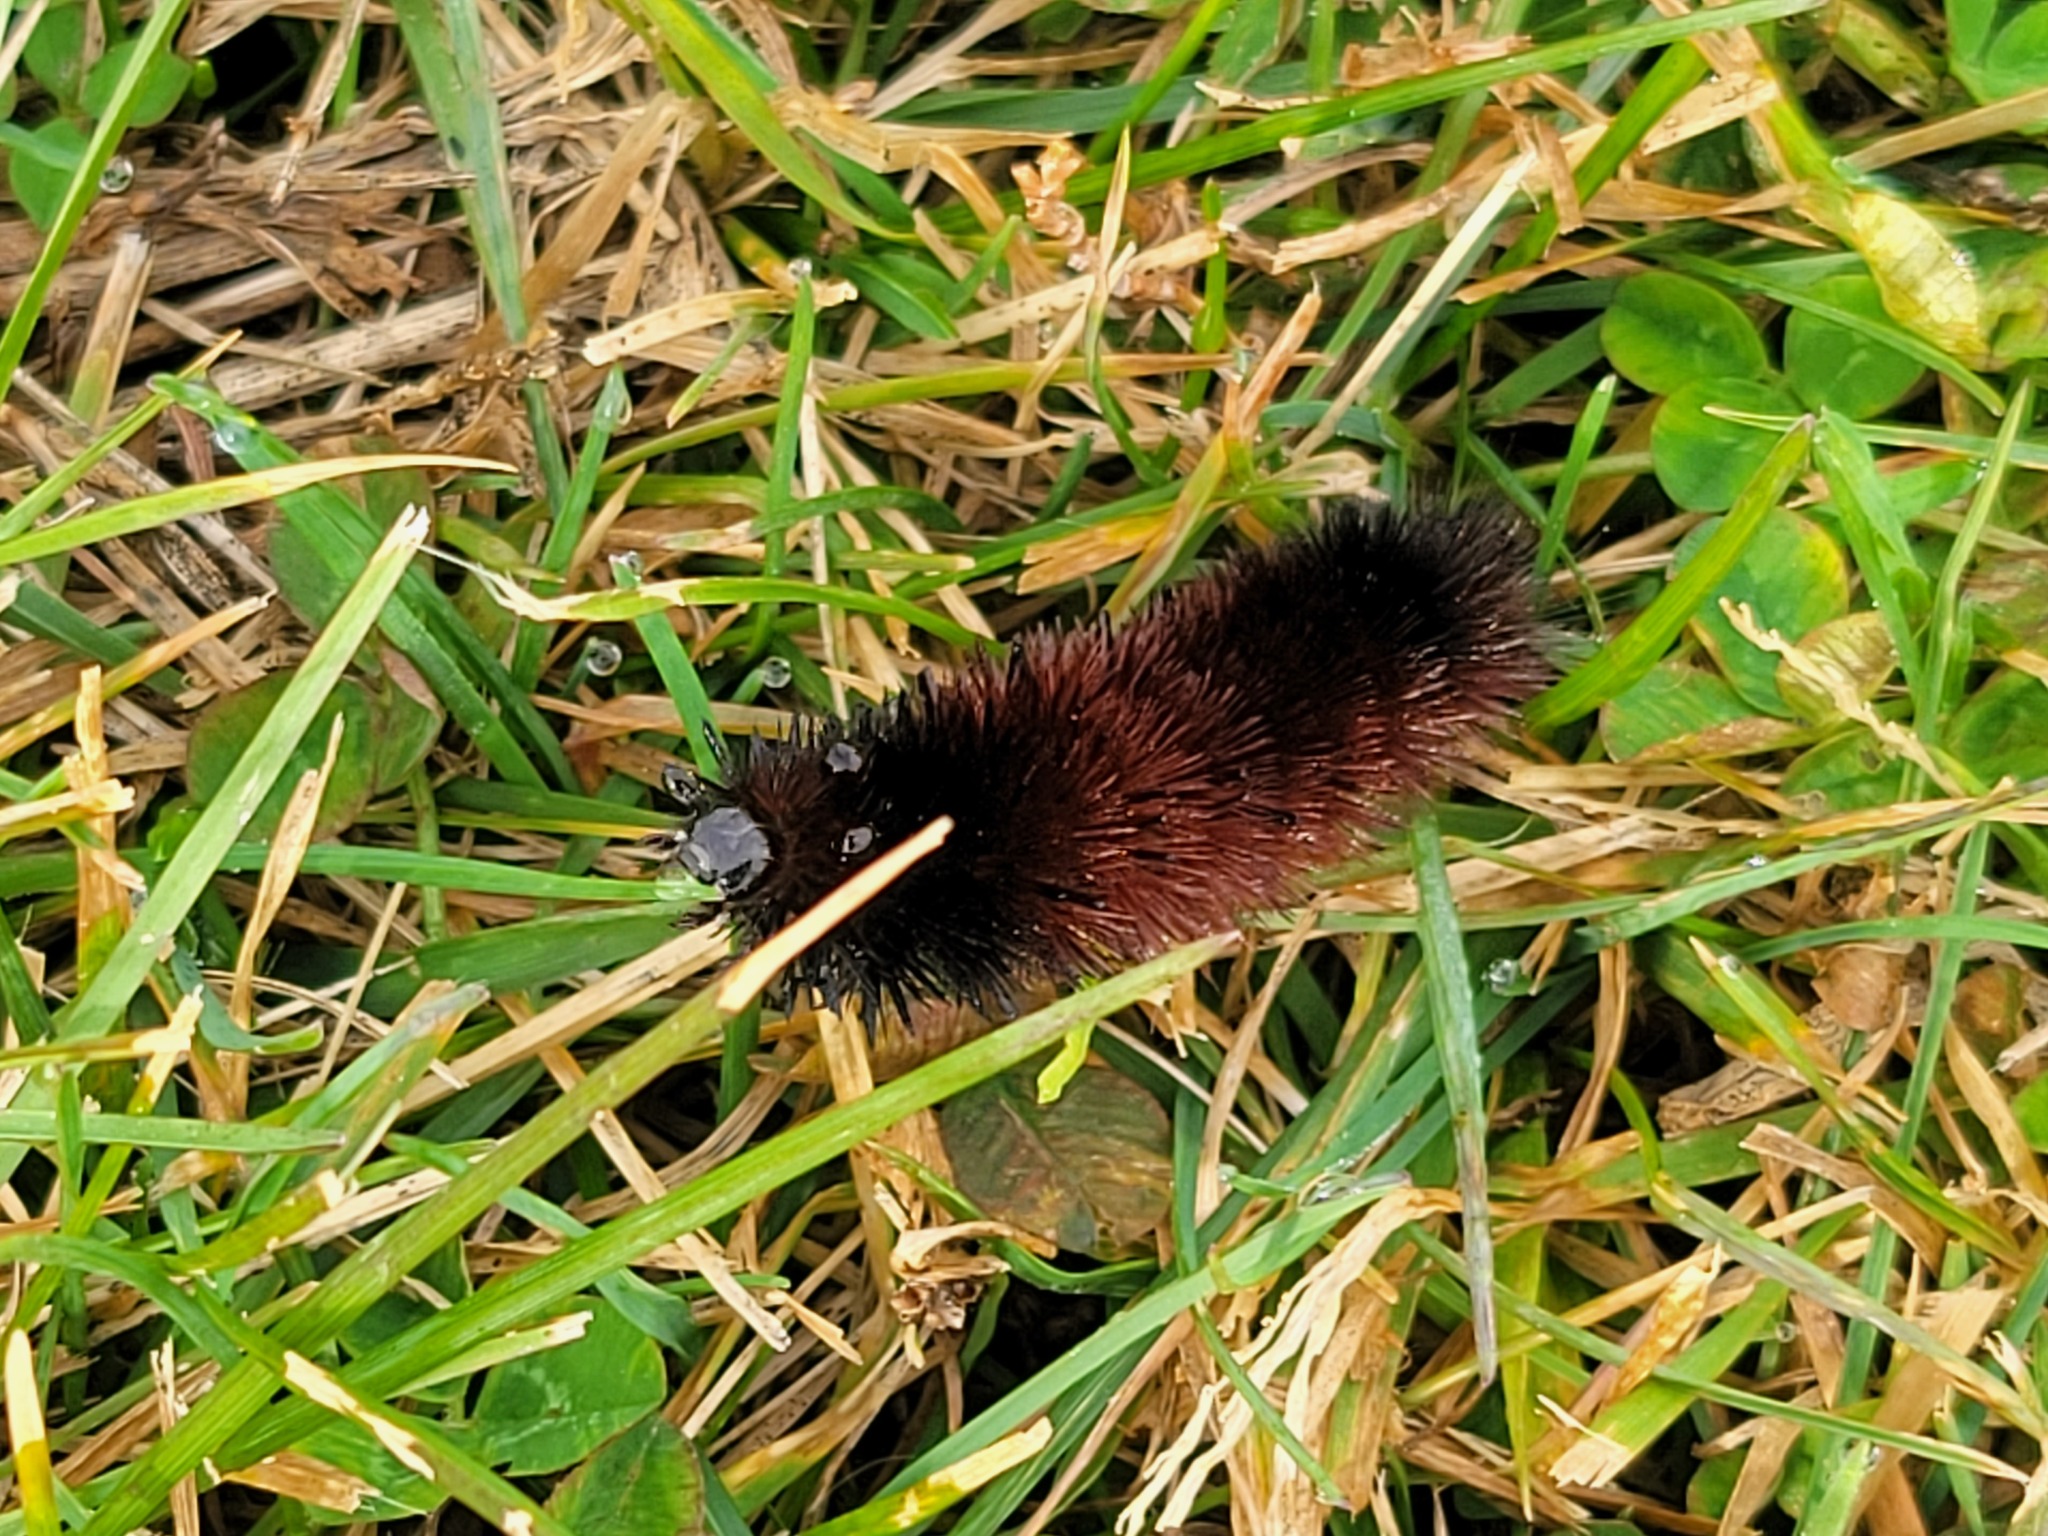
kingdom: Animalia
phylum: Arthropoda
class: Insecta
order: Lepidoptera
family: Erebidae
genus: Pyrrharctia
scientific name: Pyrrharctia isabella
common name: Isabella tiger moth
